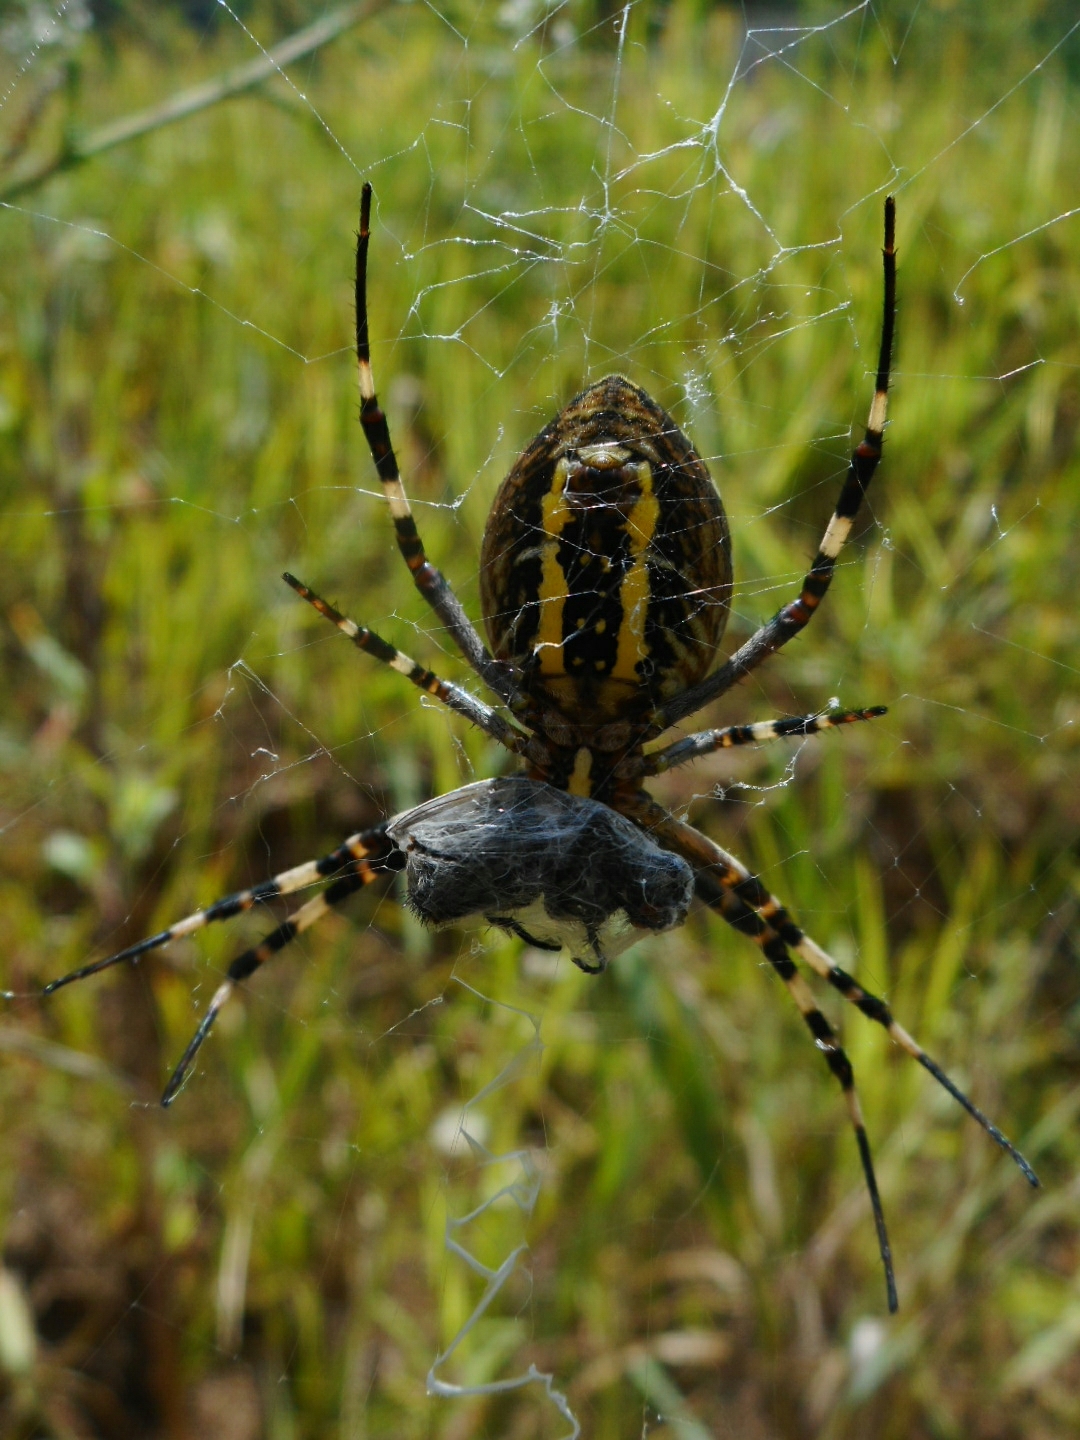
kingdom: Animalia
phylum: Arthropoda
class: Arachnida
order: Araneae
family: Araneidae
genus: Argiope
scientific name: Argiope bruennichi
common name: Wasp spider
